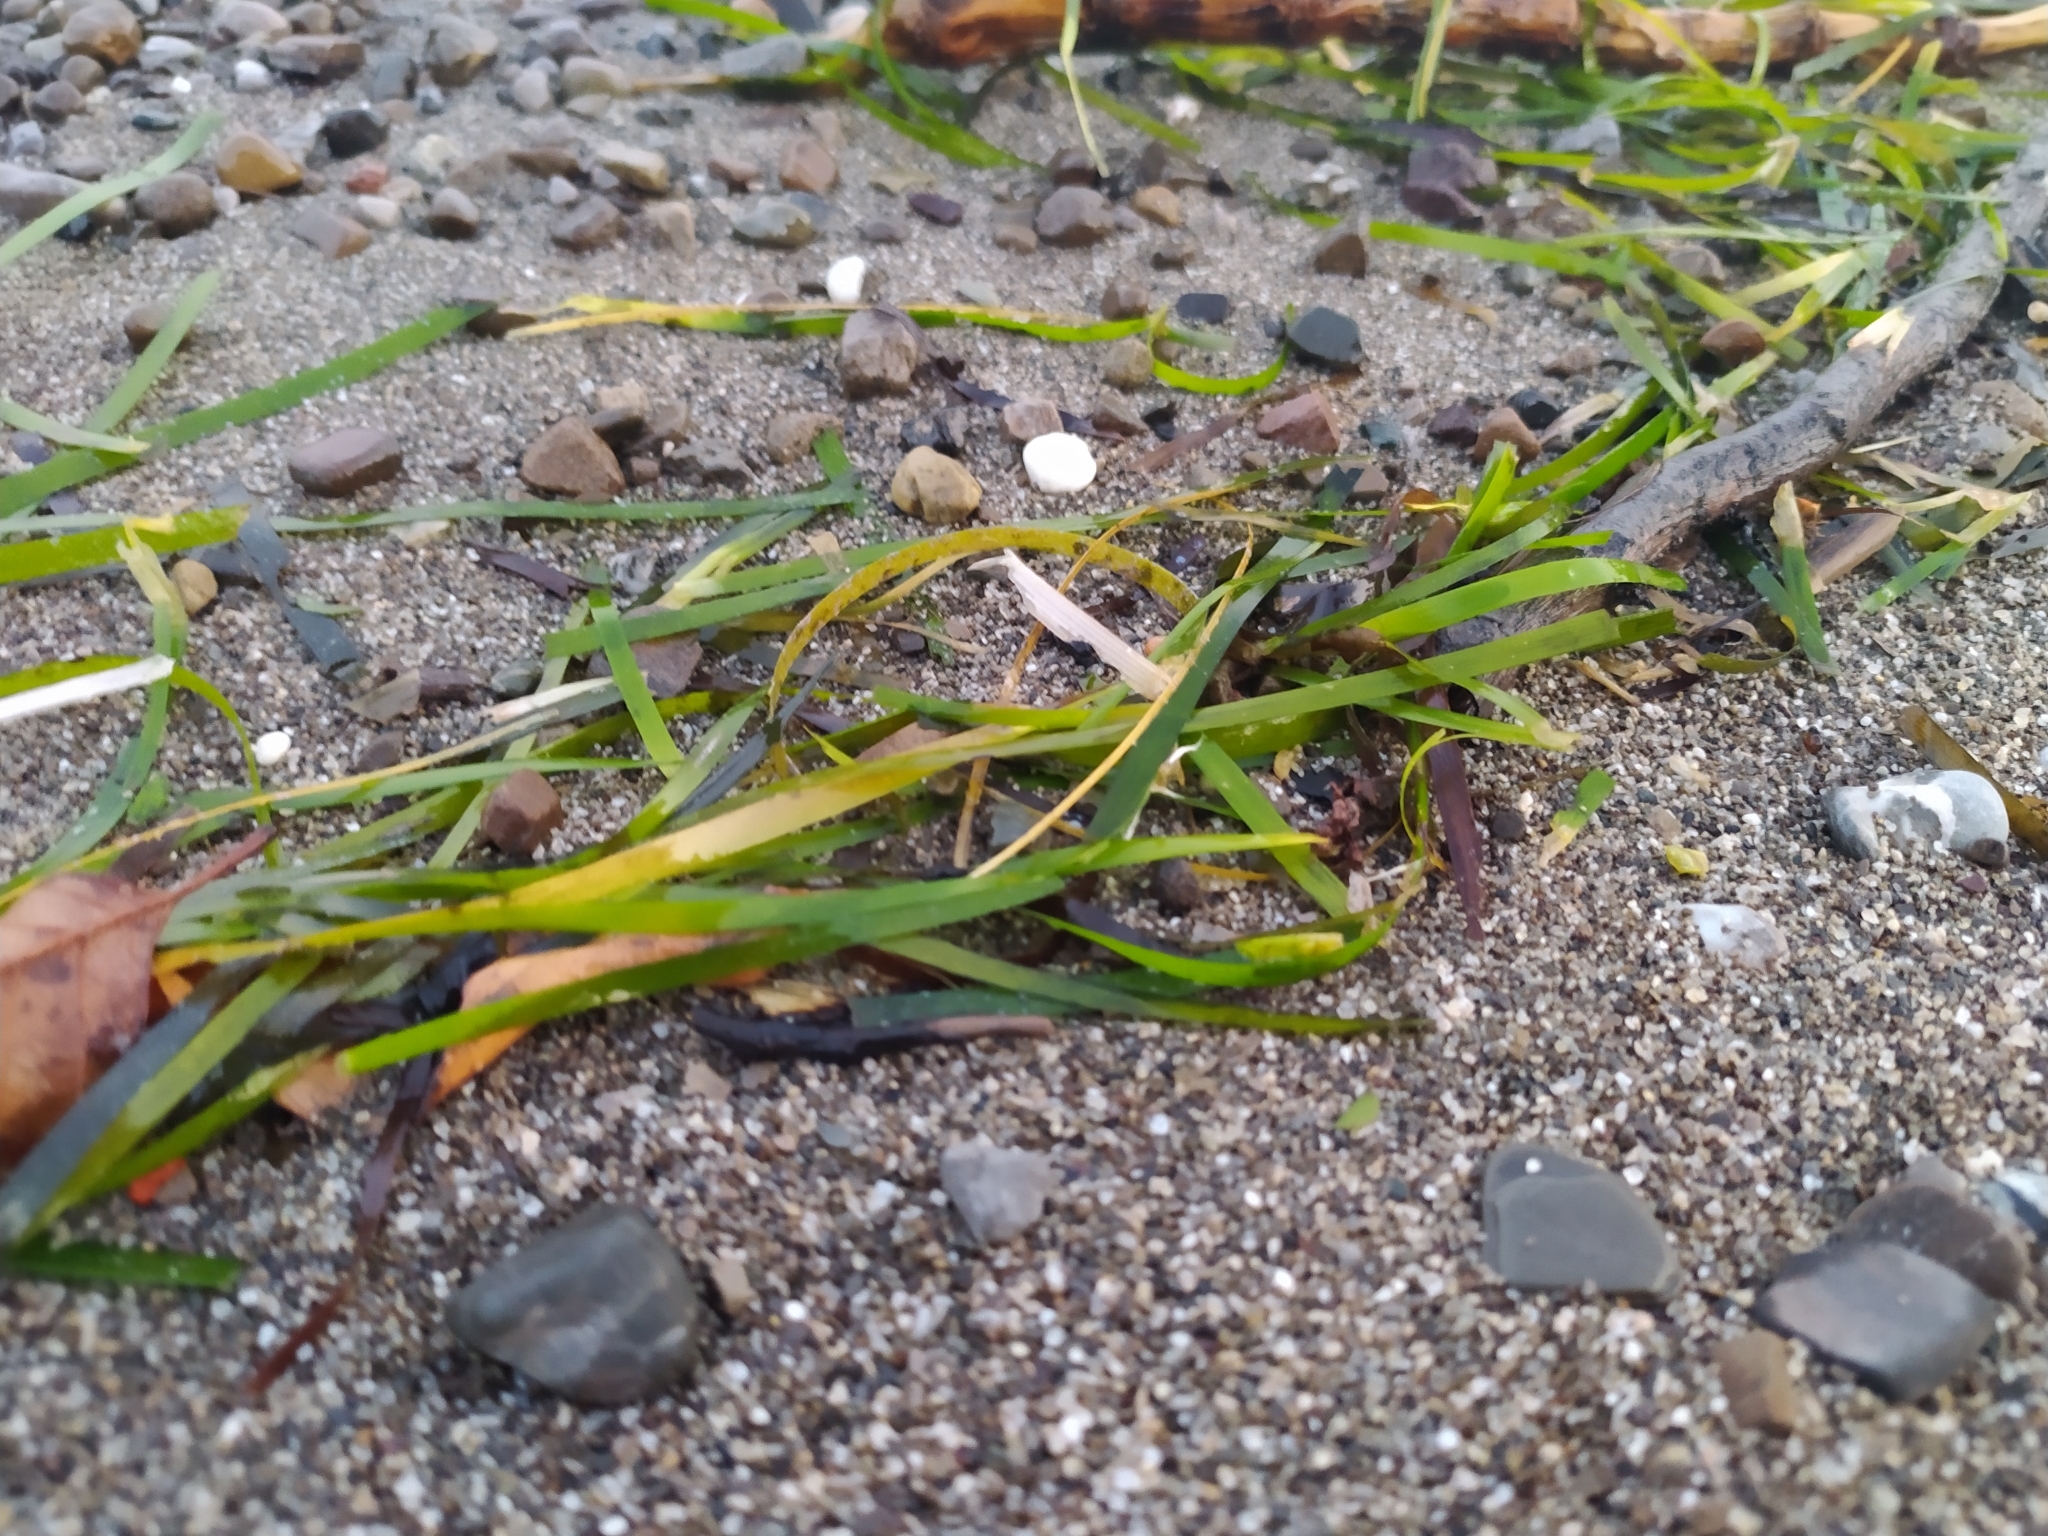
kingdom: Plantae
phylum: Tracheophyta
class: Liliopsida
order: Alismatales
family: Posidoniaceae
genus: Posidonia
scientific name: Posidonia oceanica
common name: Mediterranean tapeweed
